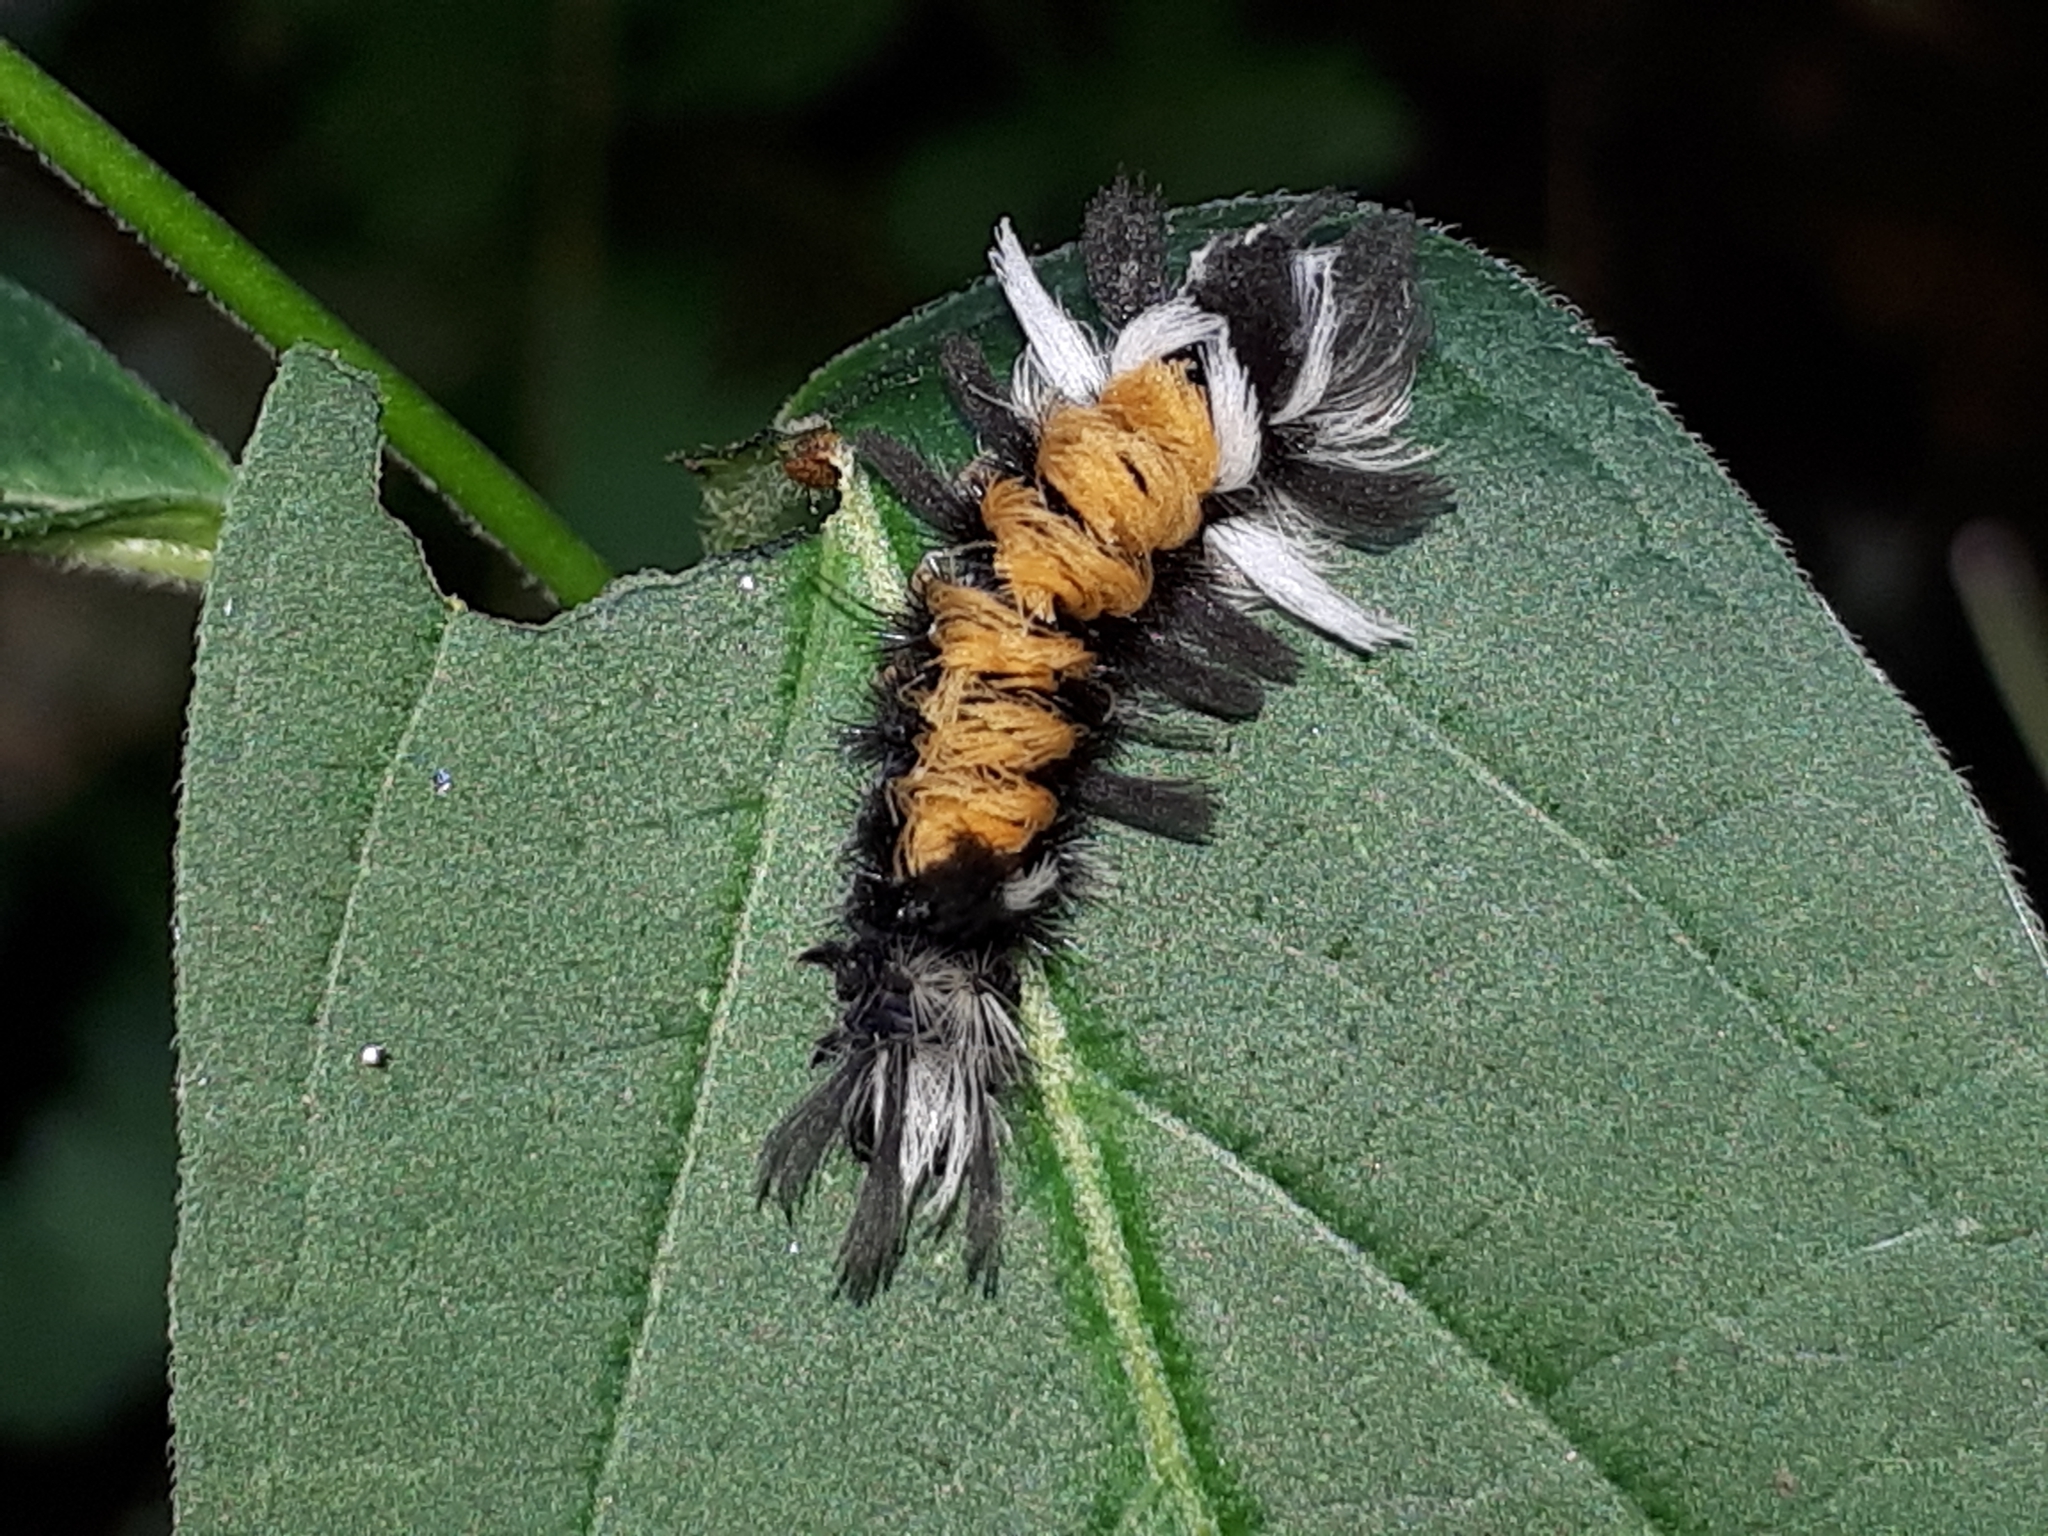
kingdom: Animalia
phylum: Arthropoda
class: Insecta
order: Lepidoptera
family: Erebidae
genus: Euchaetes
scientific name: Euchaetes egle
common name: Milkweed tussock moth
